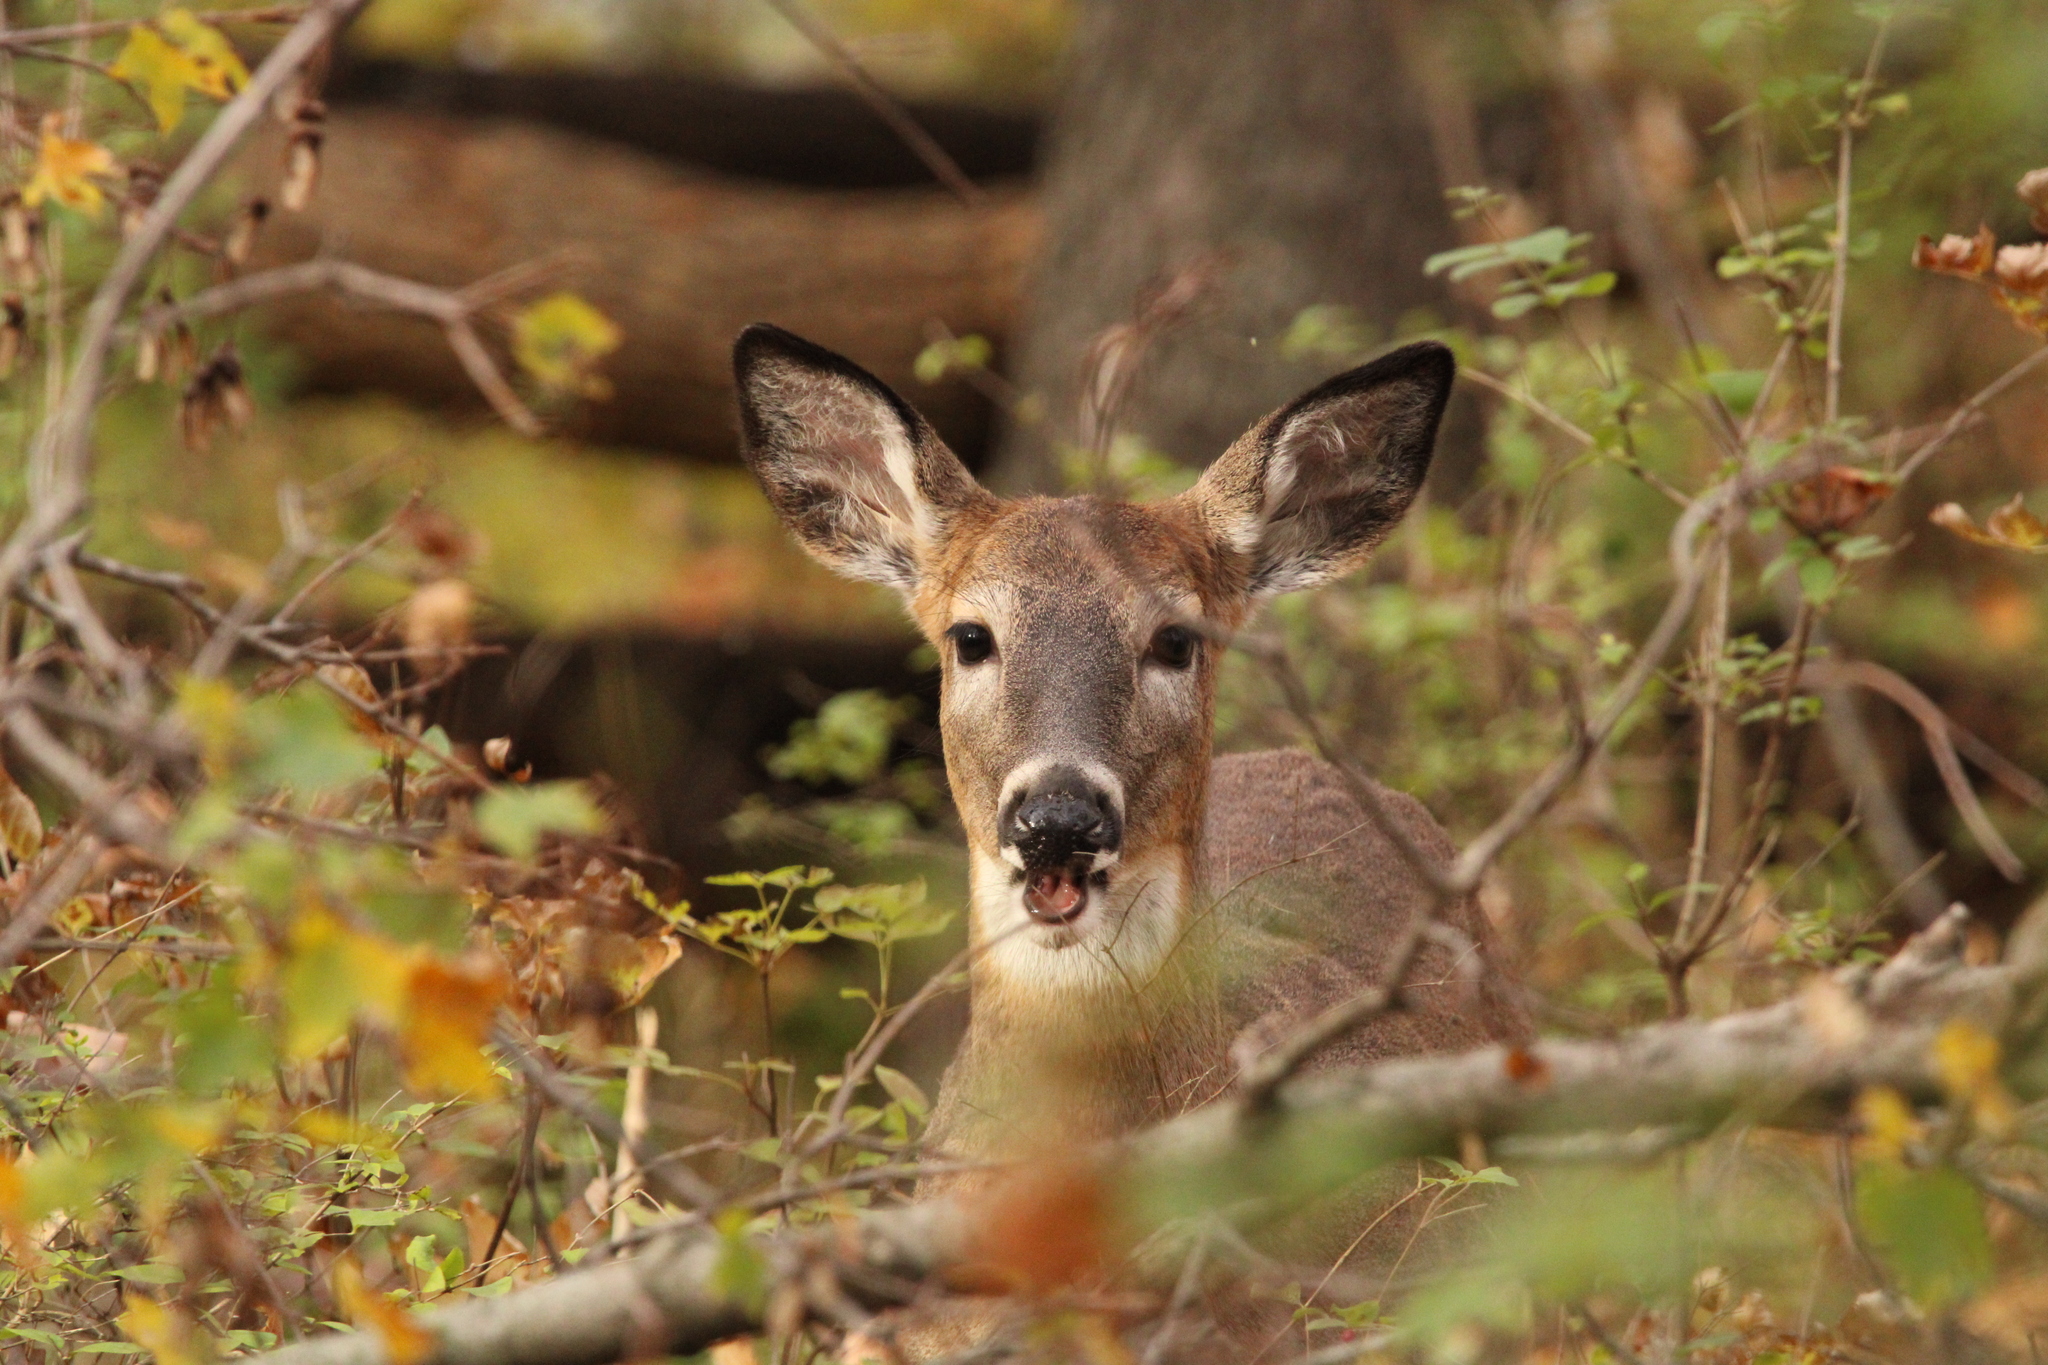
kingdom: Animalia
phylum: Chordata
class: Mammalia
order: Artiodactyla
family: Cervidae
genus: Odocoileus
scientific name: Odocoileus virginianus
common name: White-tailed deer
